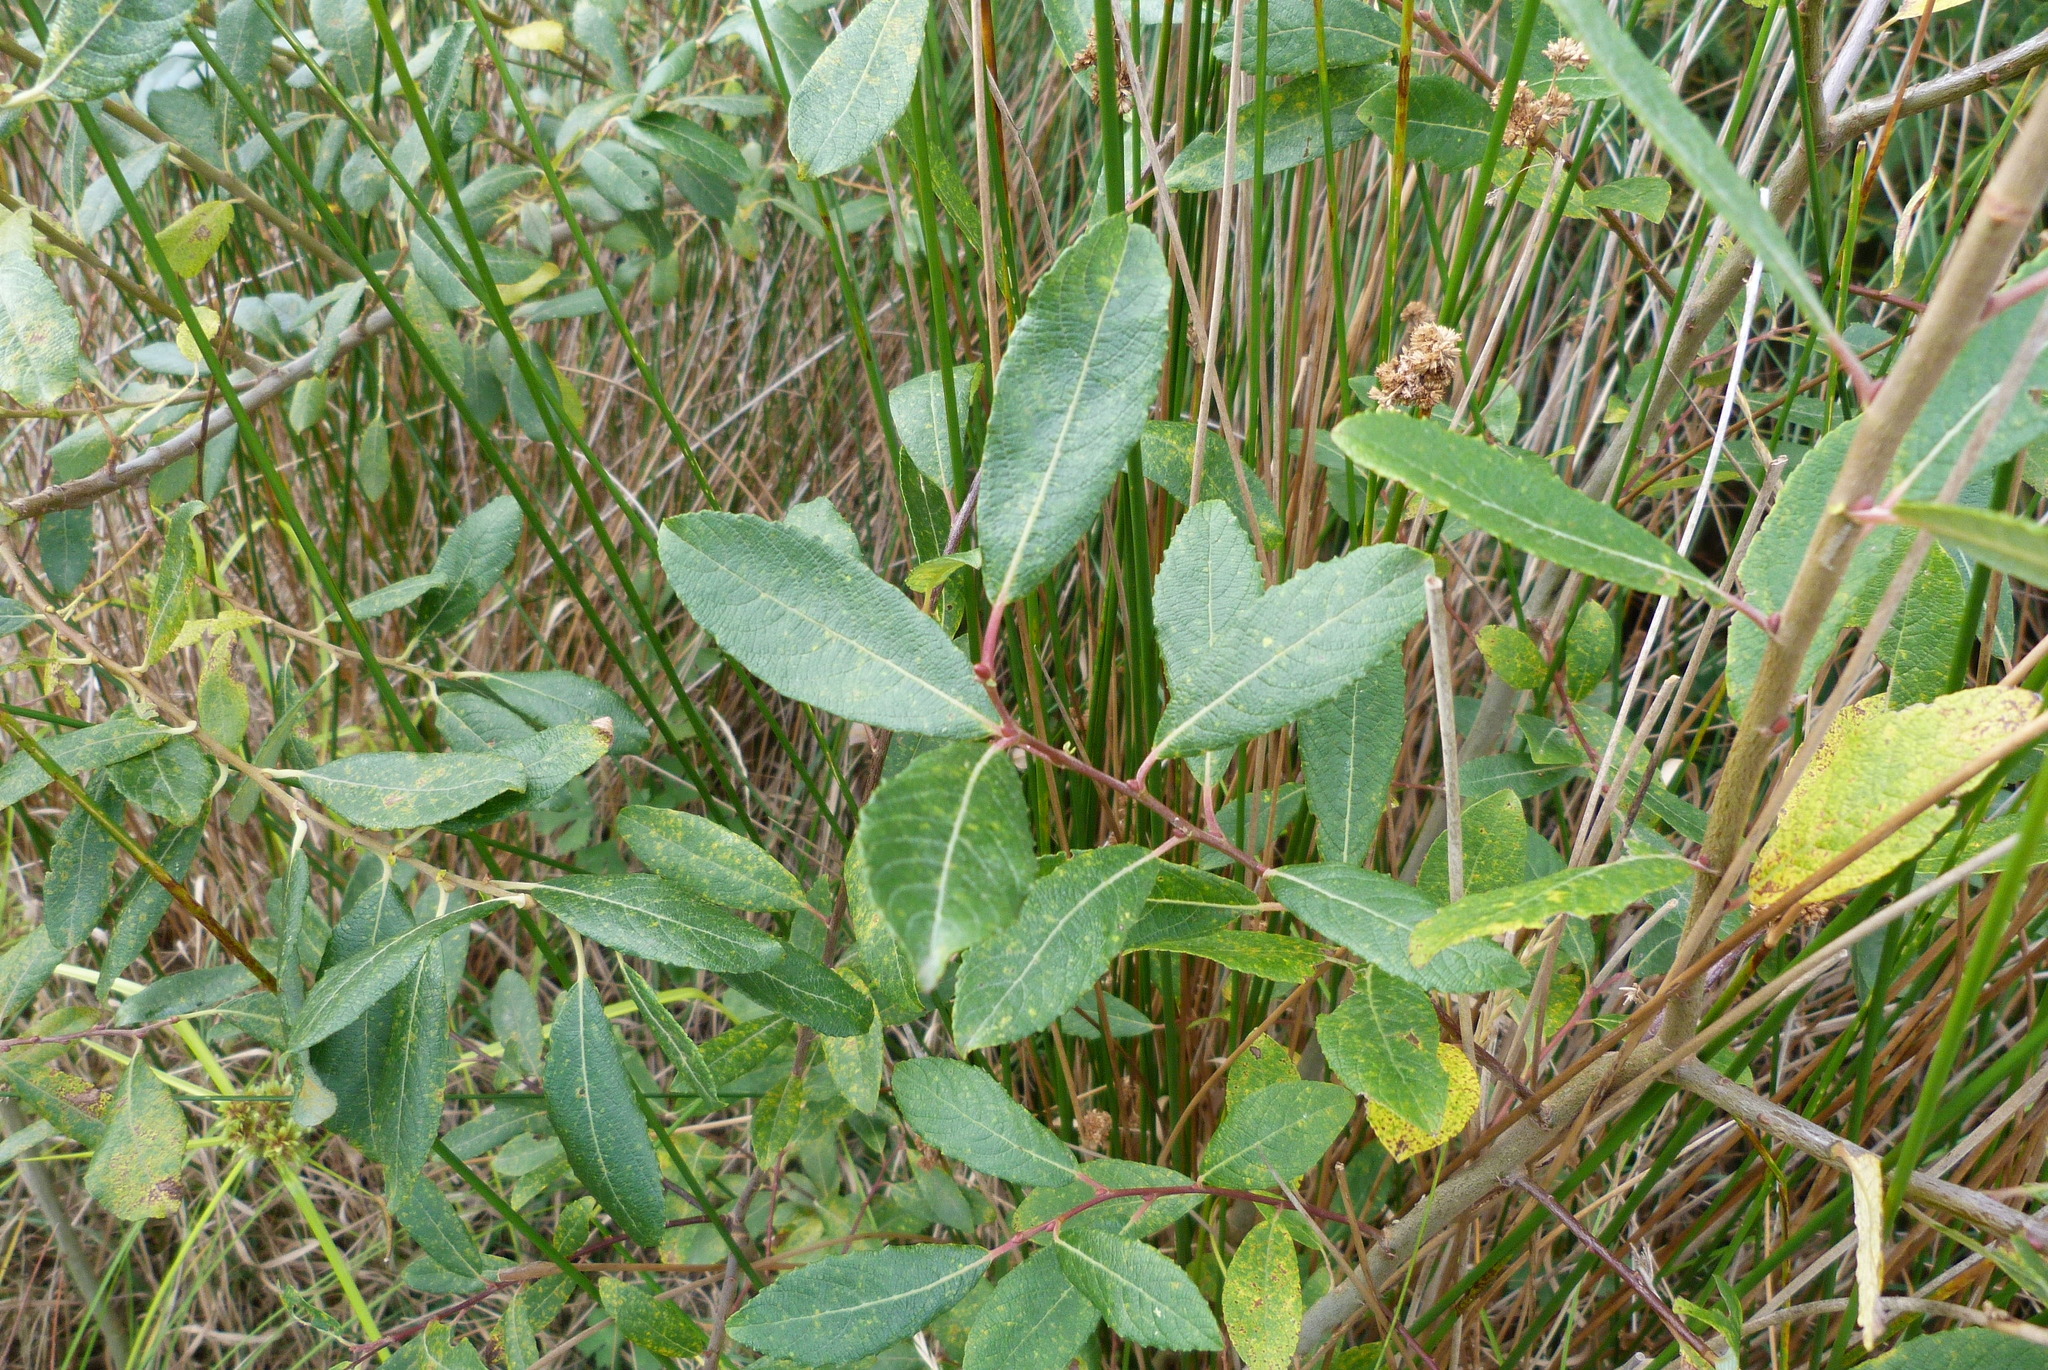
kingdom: Plantae
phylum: Tracheophyta
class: Magnoliopsida
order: Malpighiales
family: Salicaceae
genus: Salix
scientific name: Salix cinerea
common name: Common sallow
